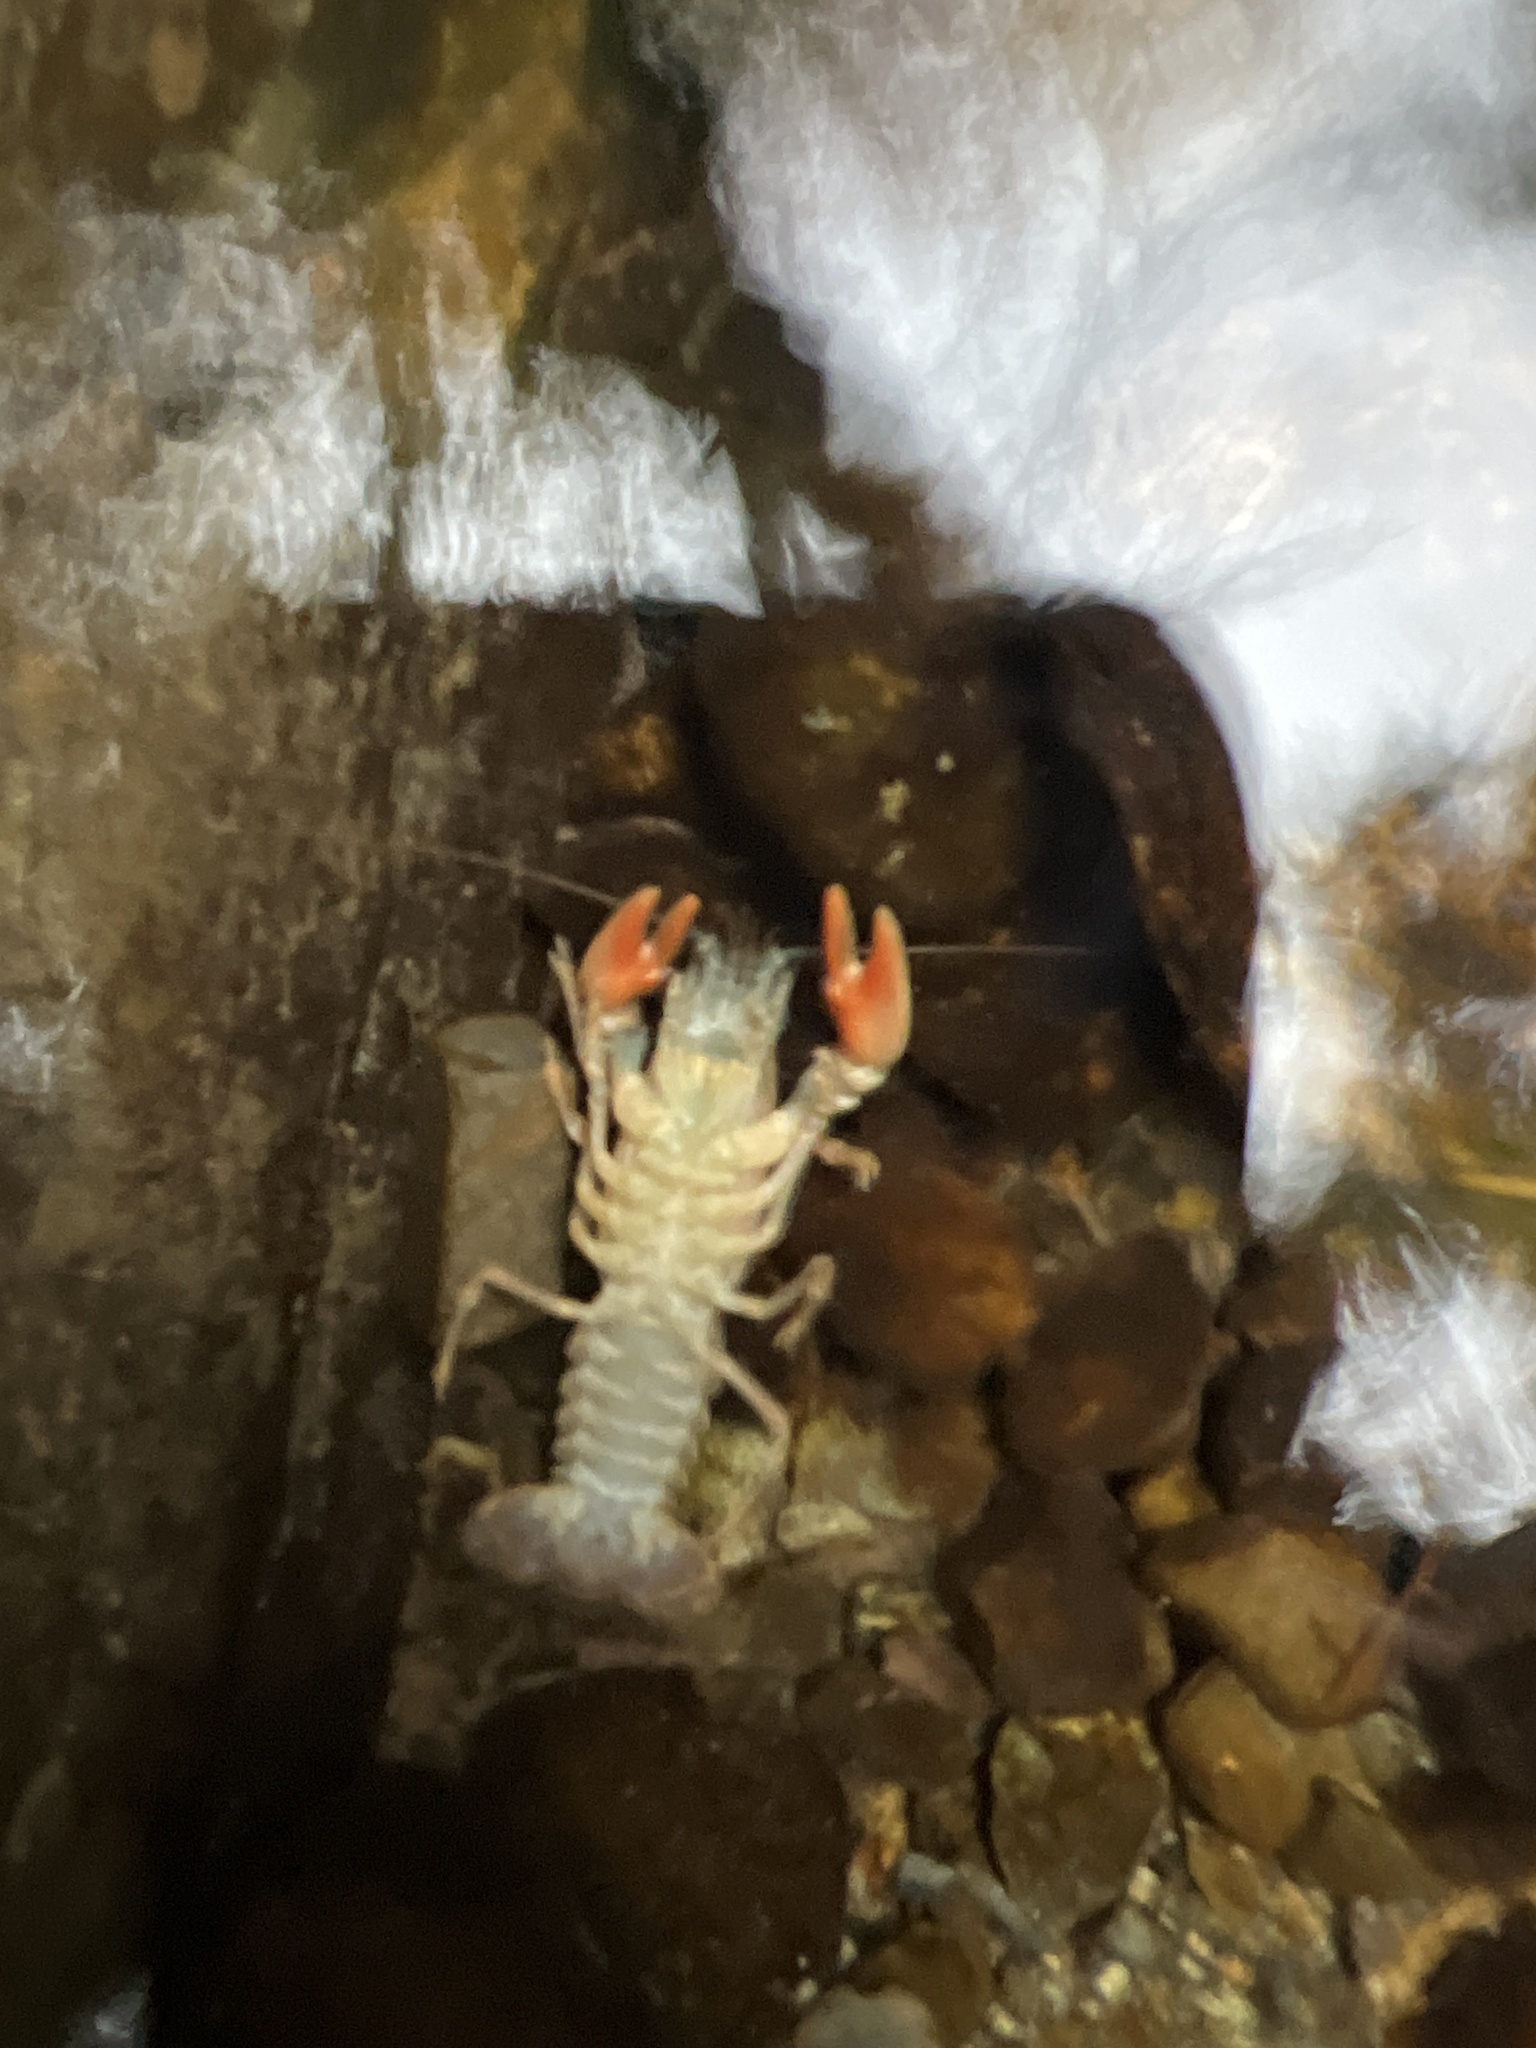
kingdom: Animalia
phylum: Arthropoda
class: Malacostraca
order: Decapoda
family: Astacidae
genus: Pacifastacus
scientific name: Pacifastacus leniusculus
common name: Signal crayfish
